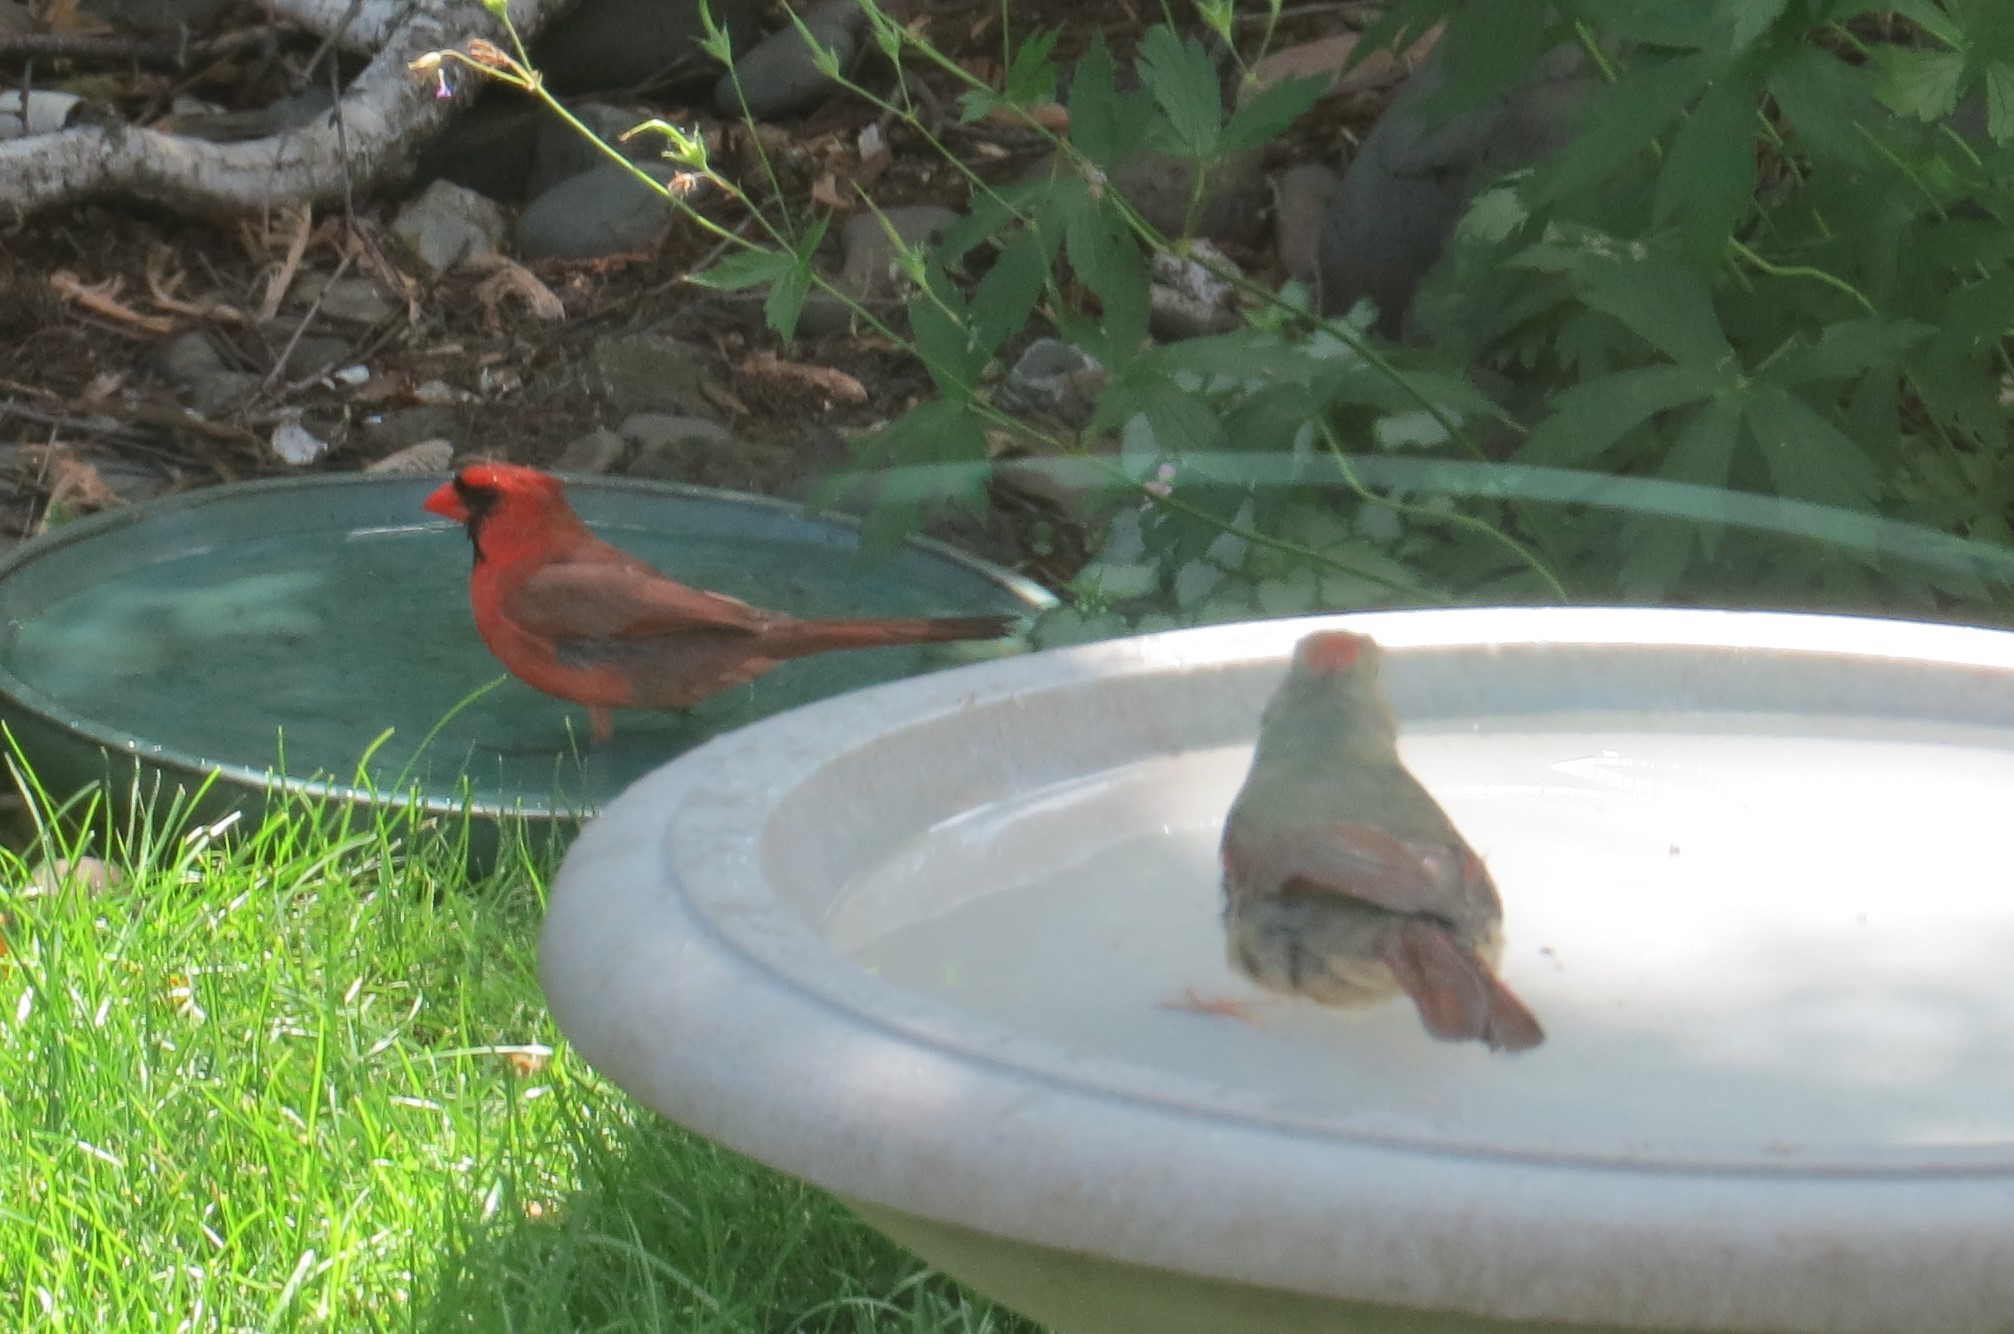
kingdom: Animalia
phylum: Chordata
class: Aves
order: Passeriformes
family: Cardinalidae
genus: Cardinalis
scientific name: Cardinalis cardinalis
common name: Northern cardinal
